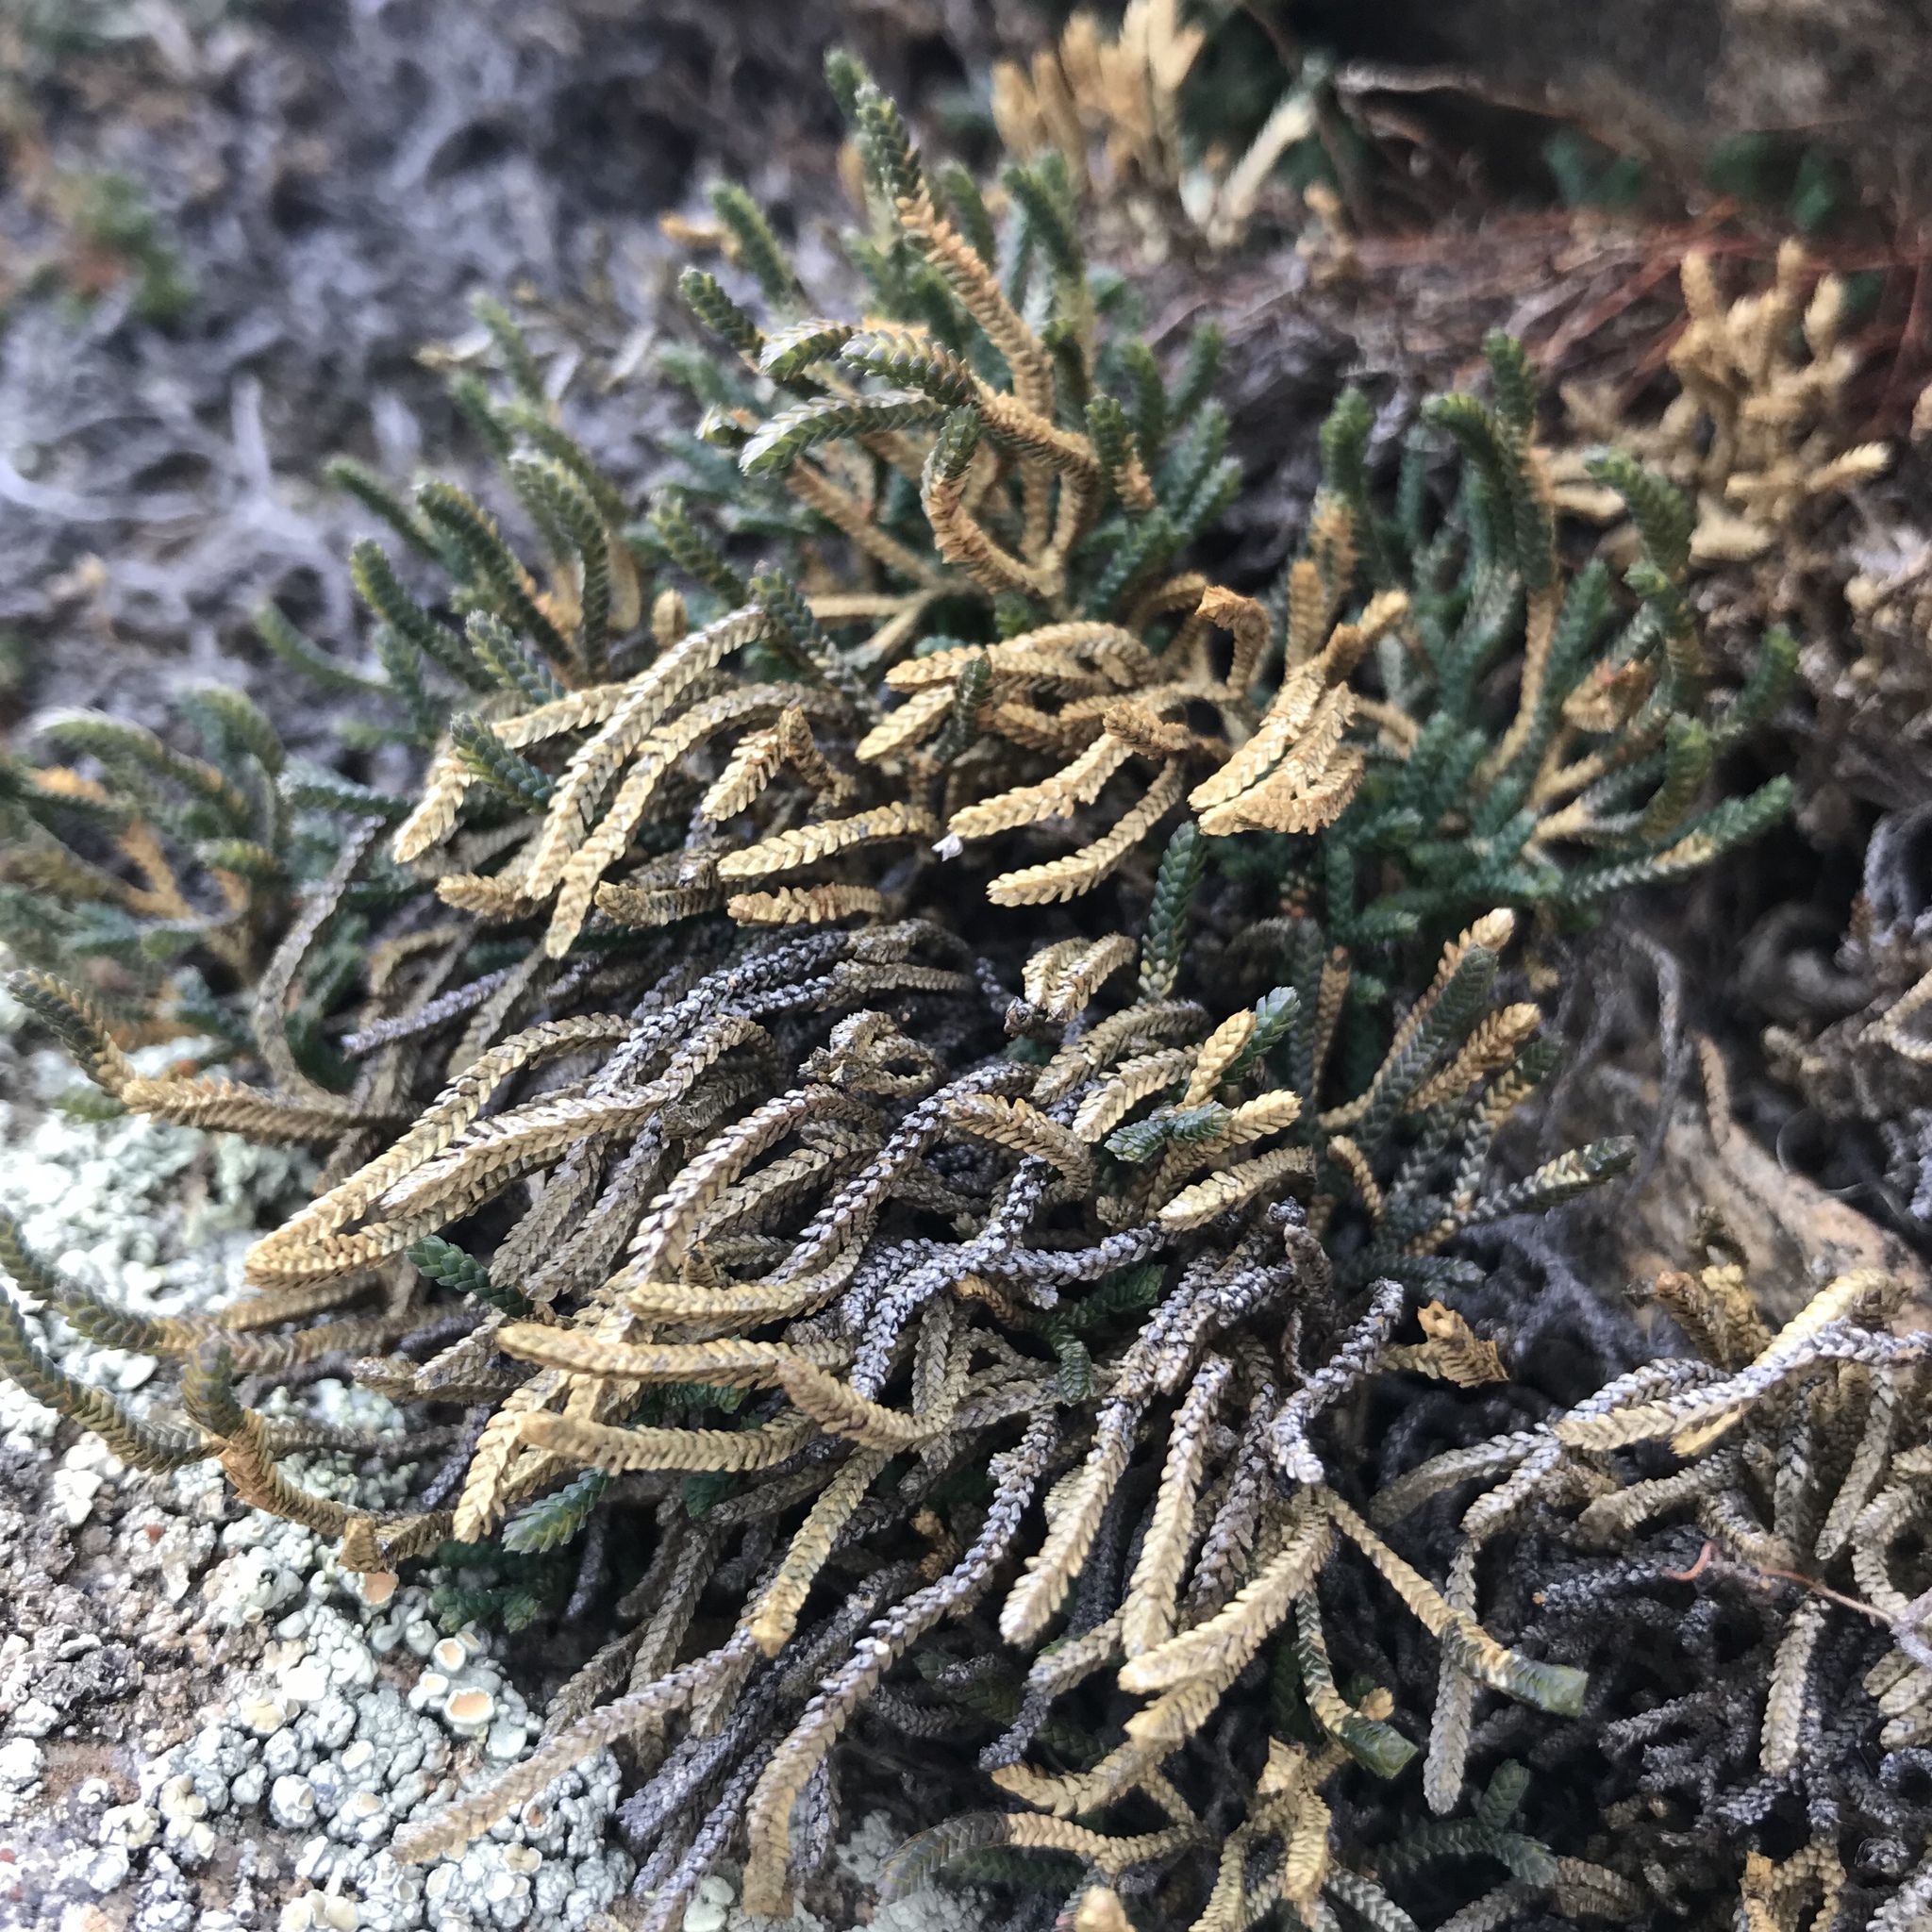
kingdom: Plantae
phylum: Tracheophyta
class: Lycopodiopsida
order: Selaginellales
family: Selaginellaceae
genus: Selaginella
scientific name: Selaginella sanguinolenta
